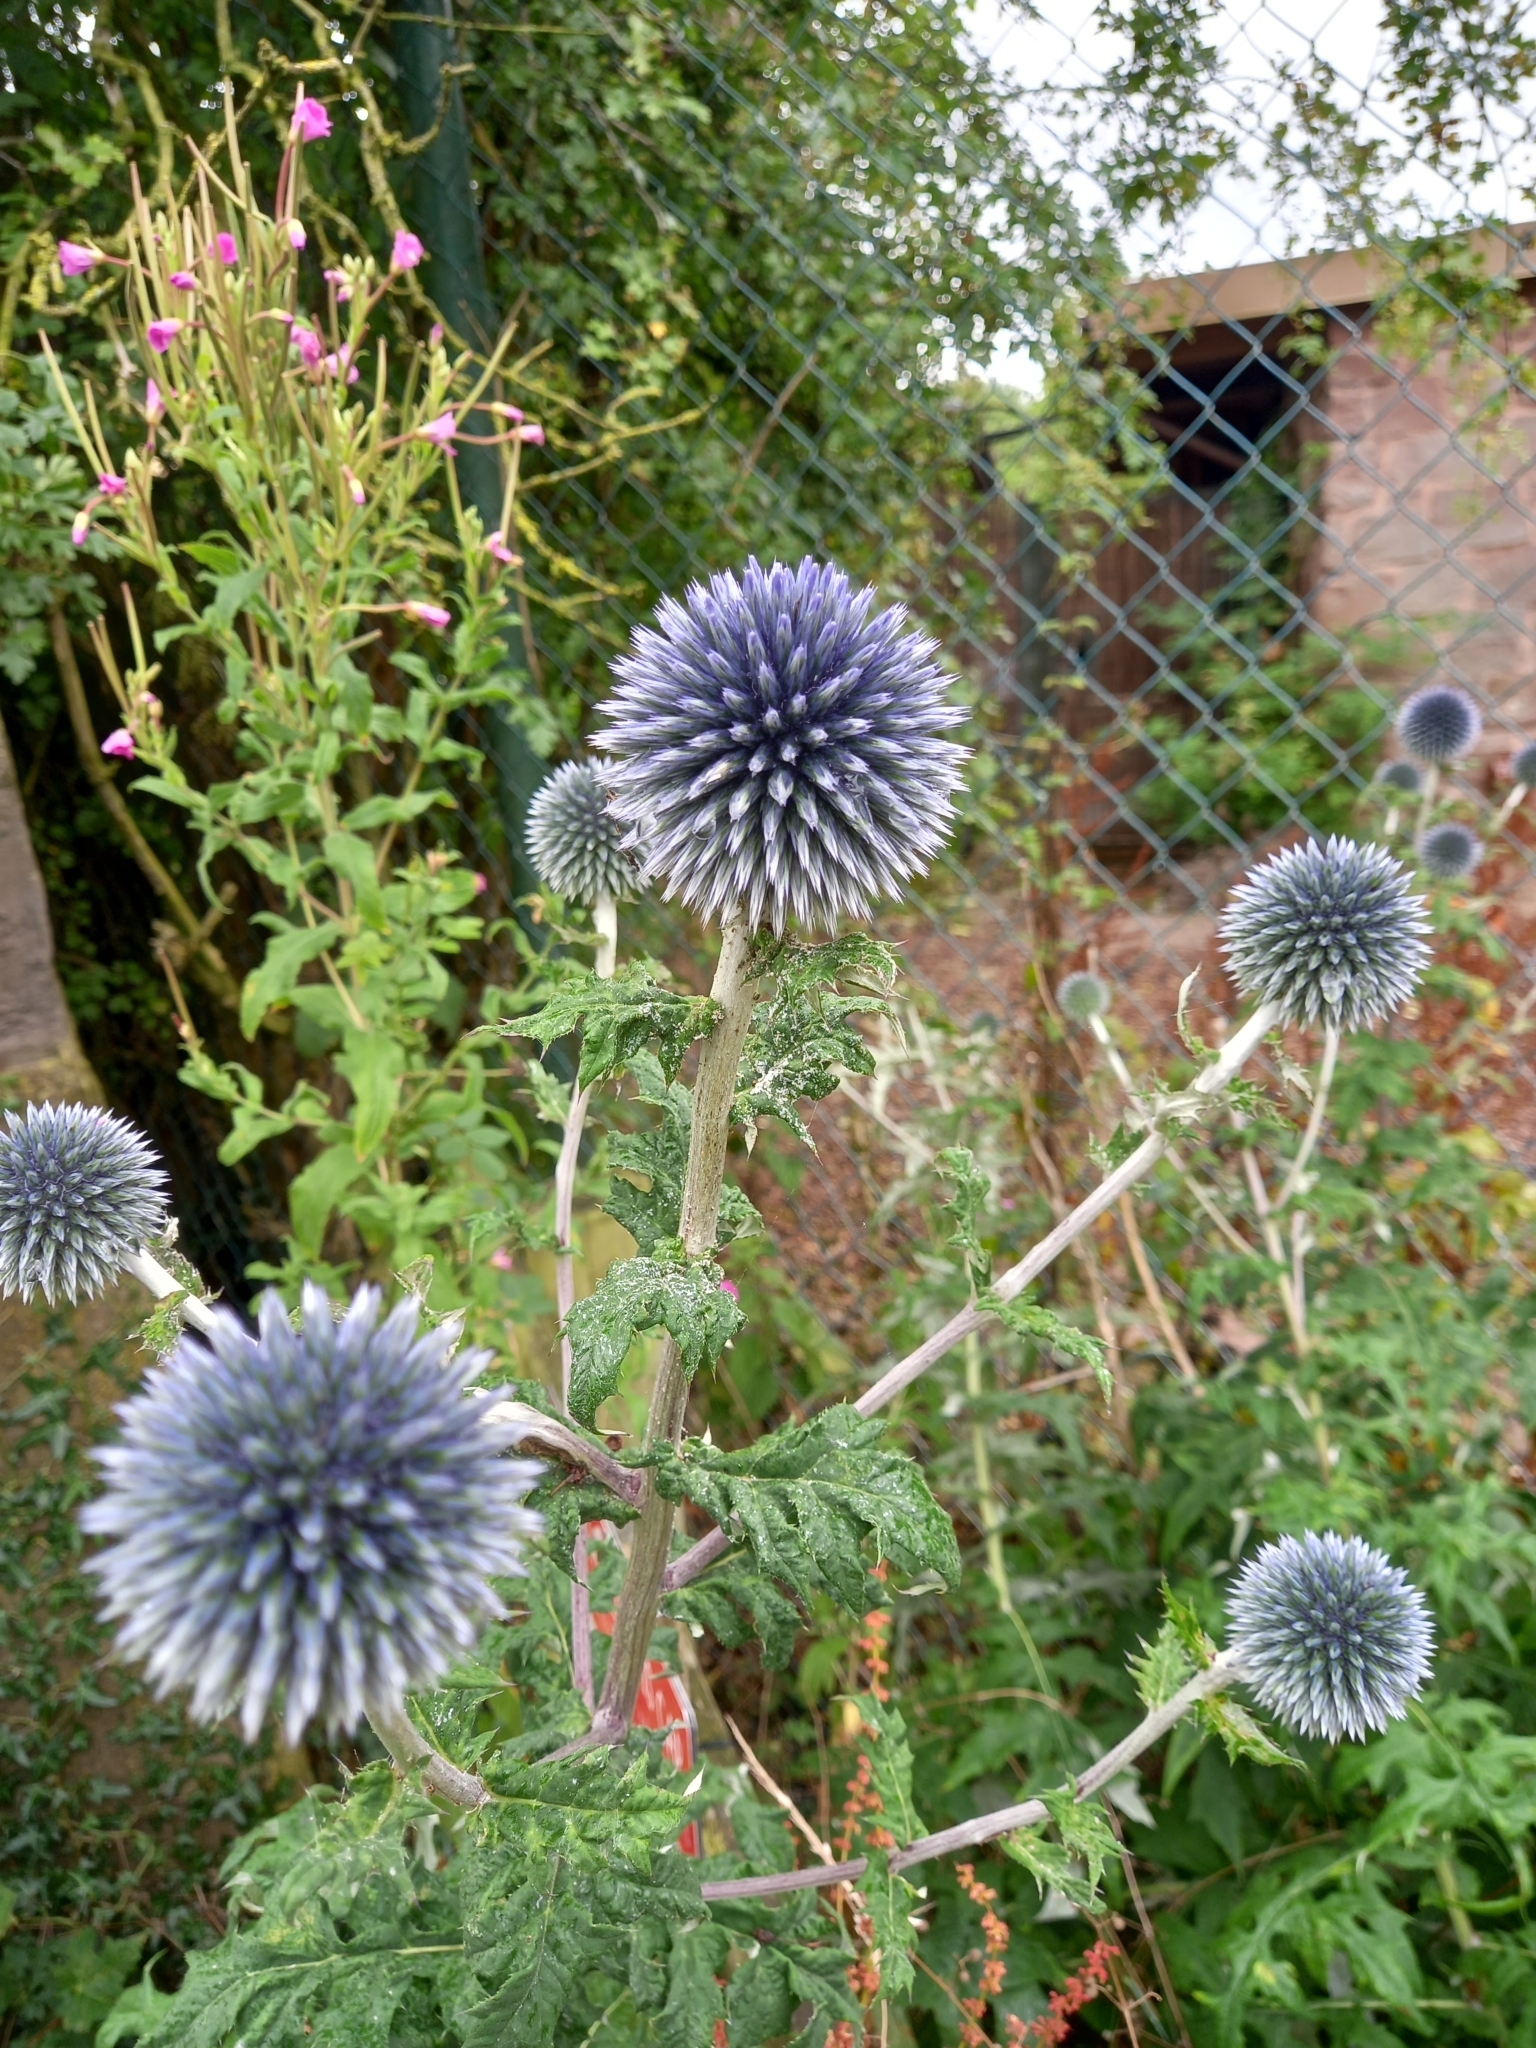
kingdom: Plantae
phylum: Tracheophyta
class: Magnoliopsida
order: Asterales
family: Asteraceae
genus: Echinops
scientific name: Echinops bannaticus
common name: Blue globe-thistle
